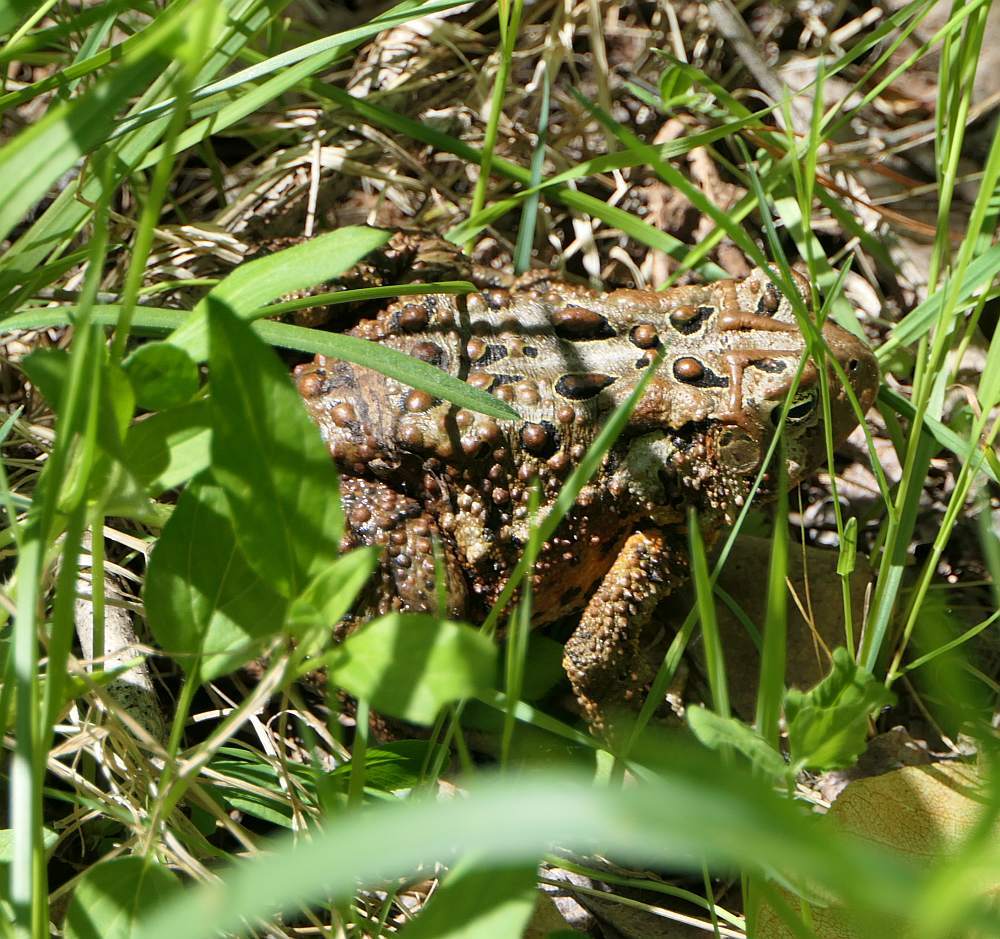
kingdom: Animalia
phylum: Chordata
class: Amphibia
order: Anura
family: Bufonidae
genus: Anaxyrus
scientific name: Anaxyrus americanus
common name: American toad
